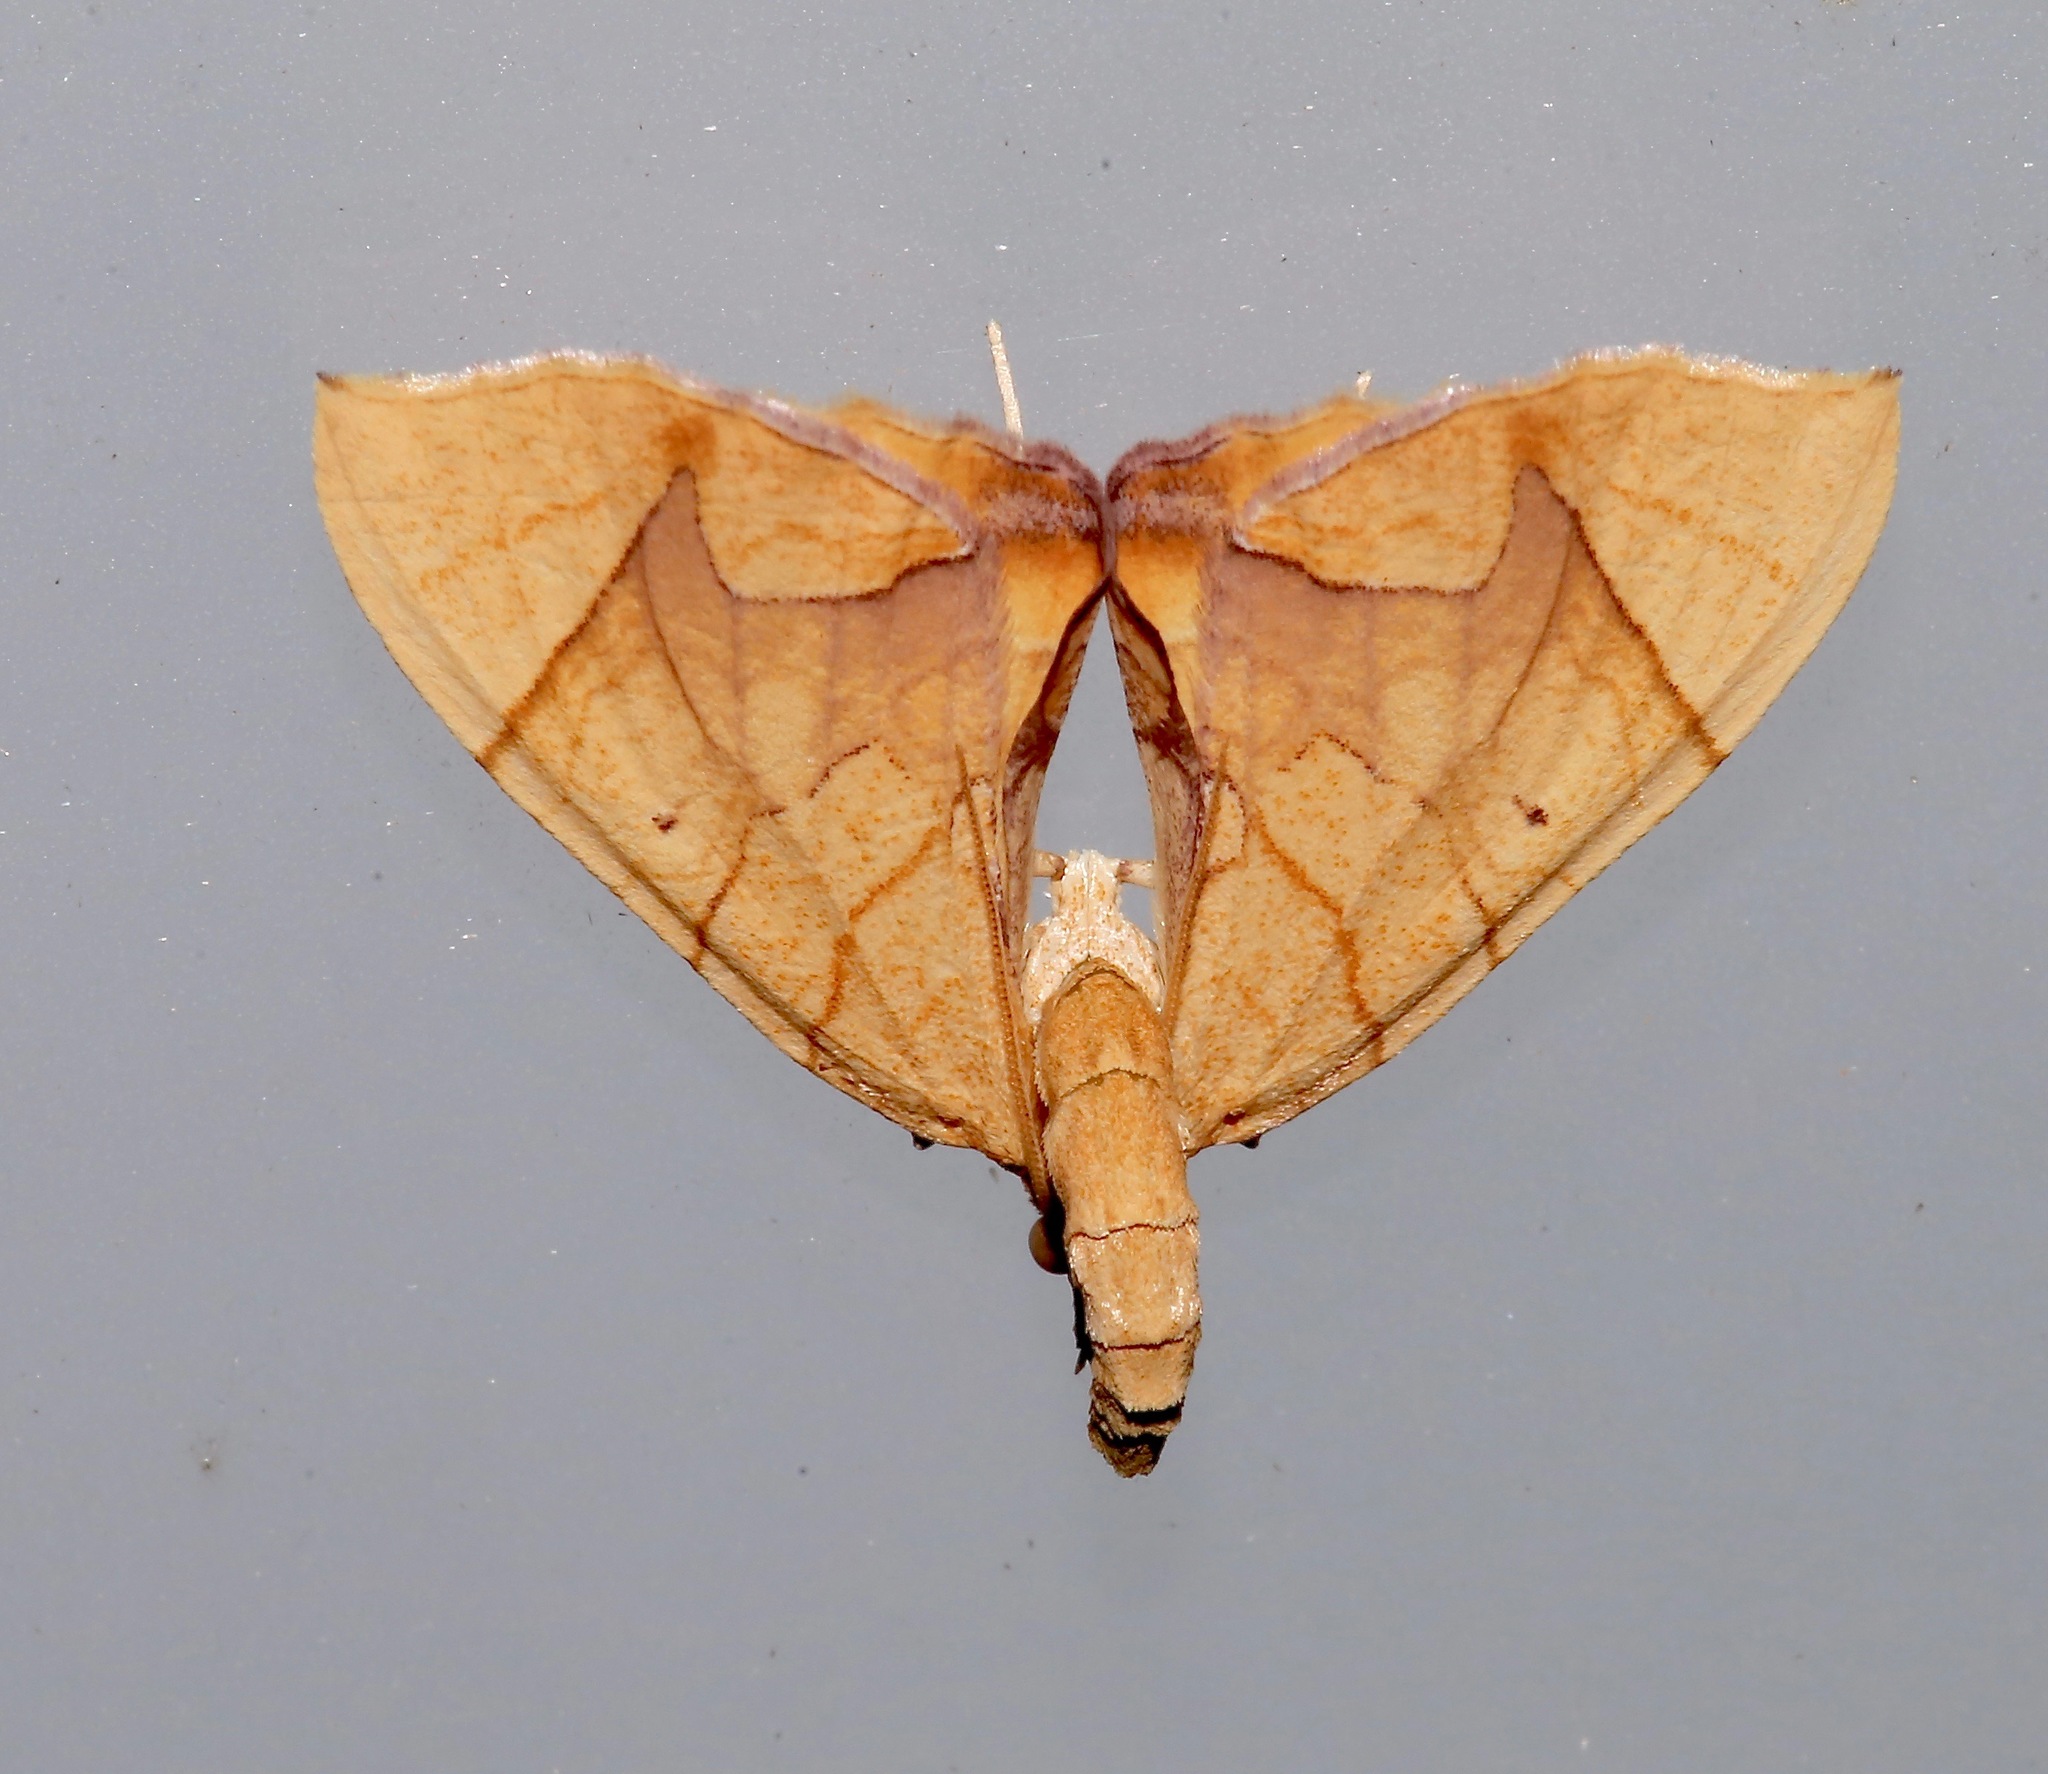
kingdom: Animalia
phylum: Arthropoda
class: Insecta
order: Lepidoptera
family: Geometridae
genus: Eulithis
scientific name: Eulithis
